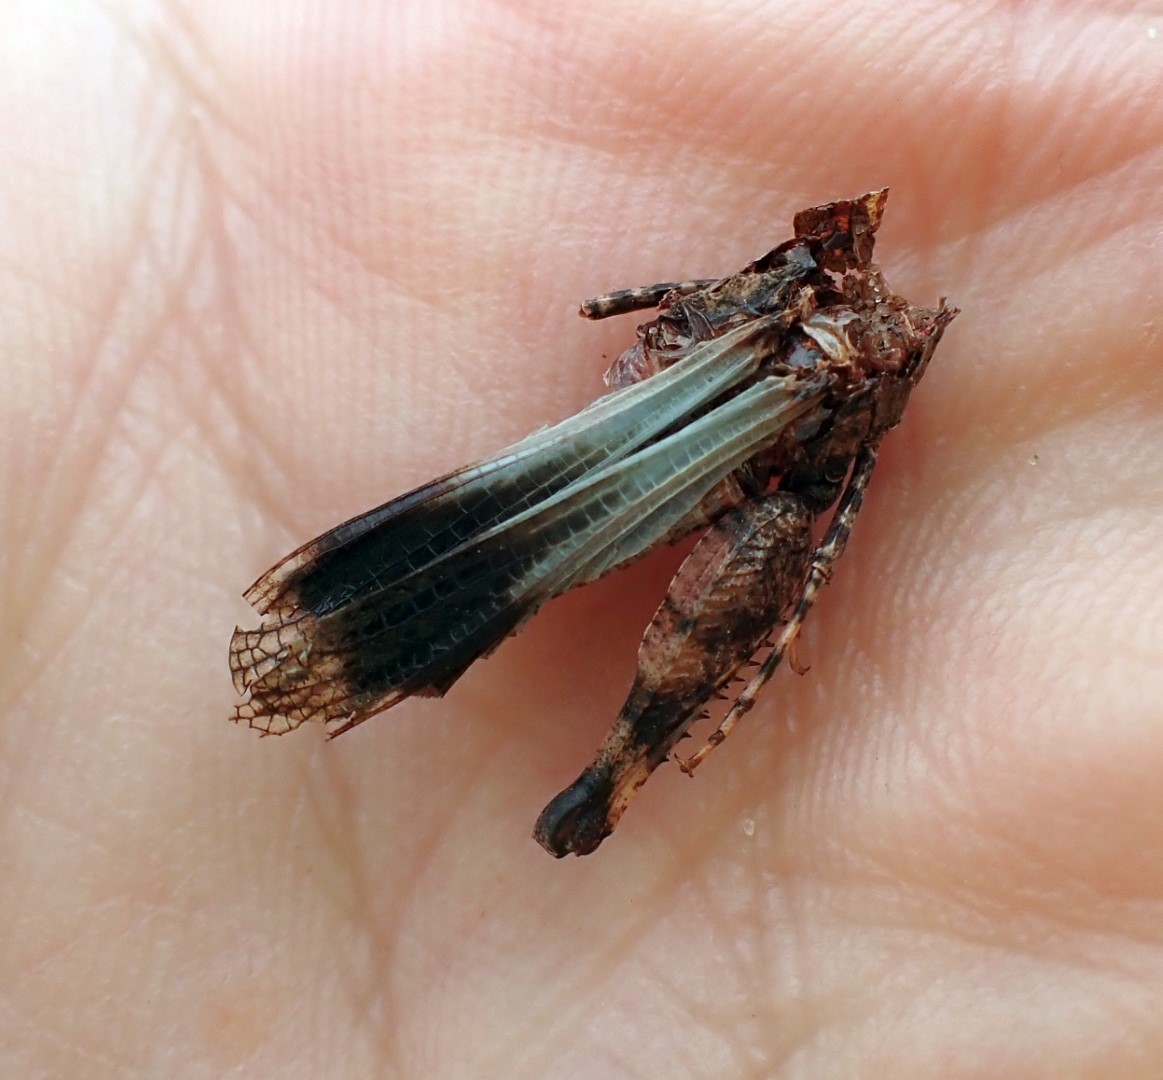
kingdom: Animalia
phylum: Arthropoda
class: Insecta
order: Orthoptera
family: Acrididae
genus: Oedipoda
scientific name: Oedipoda caerulescens
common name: Blue-winged grasshopper
